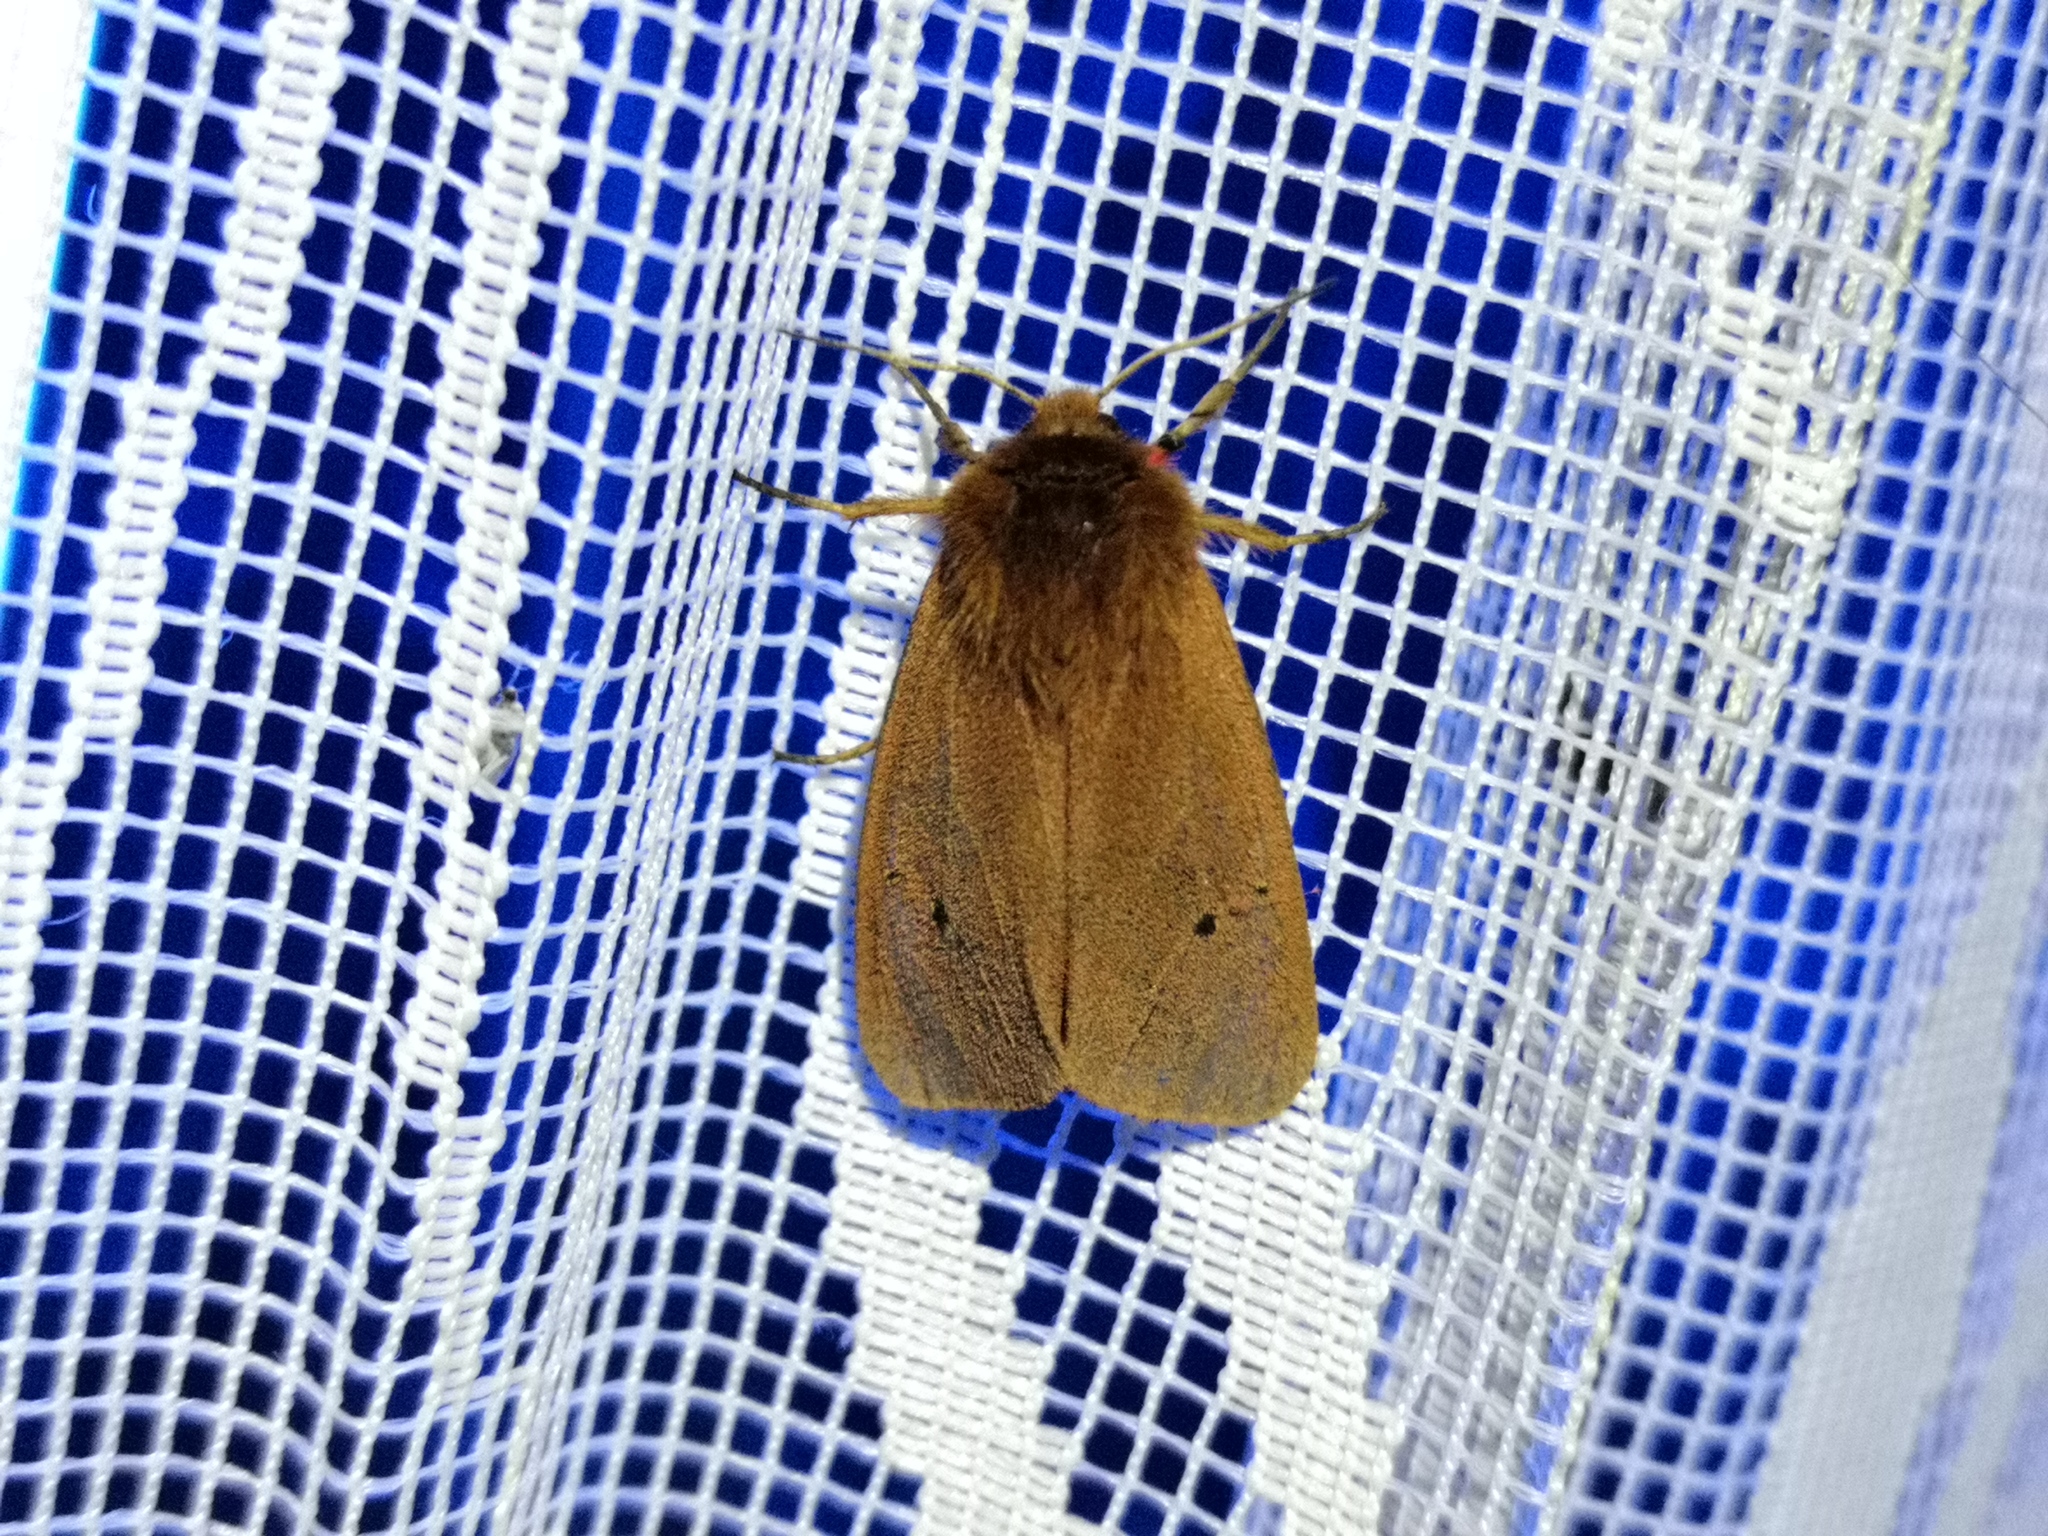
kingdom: Animalia
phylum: Arthropoda
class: Insecta
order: Lepidoptera
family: Erebidae
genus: Phragmatobia
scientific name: Phragmatobia fuliginosa
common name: Ruby tiger
